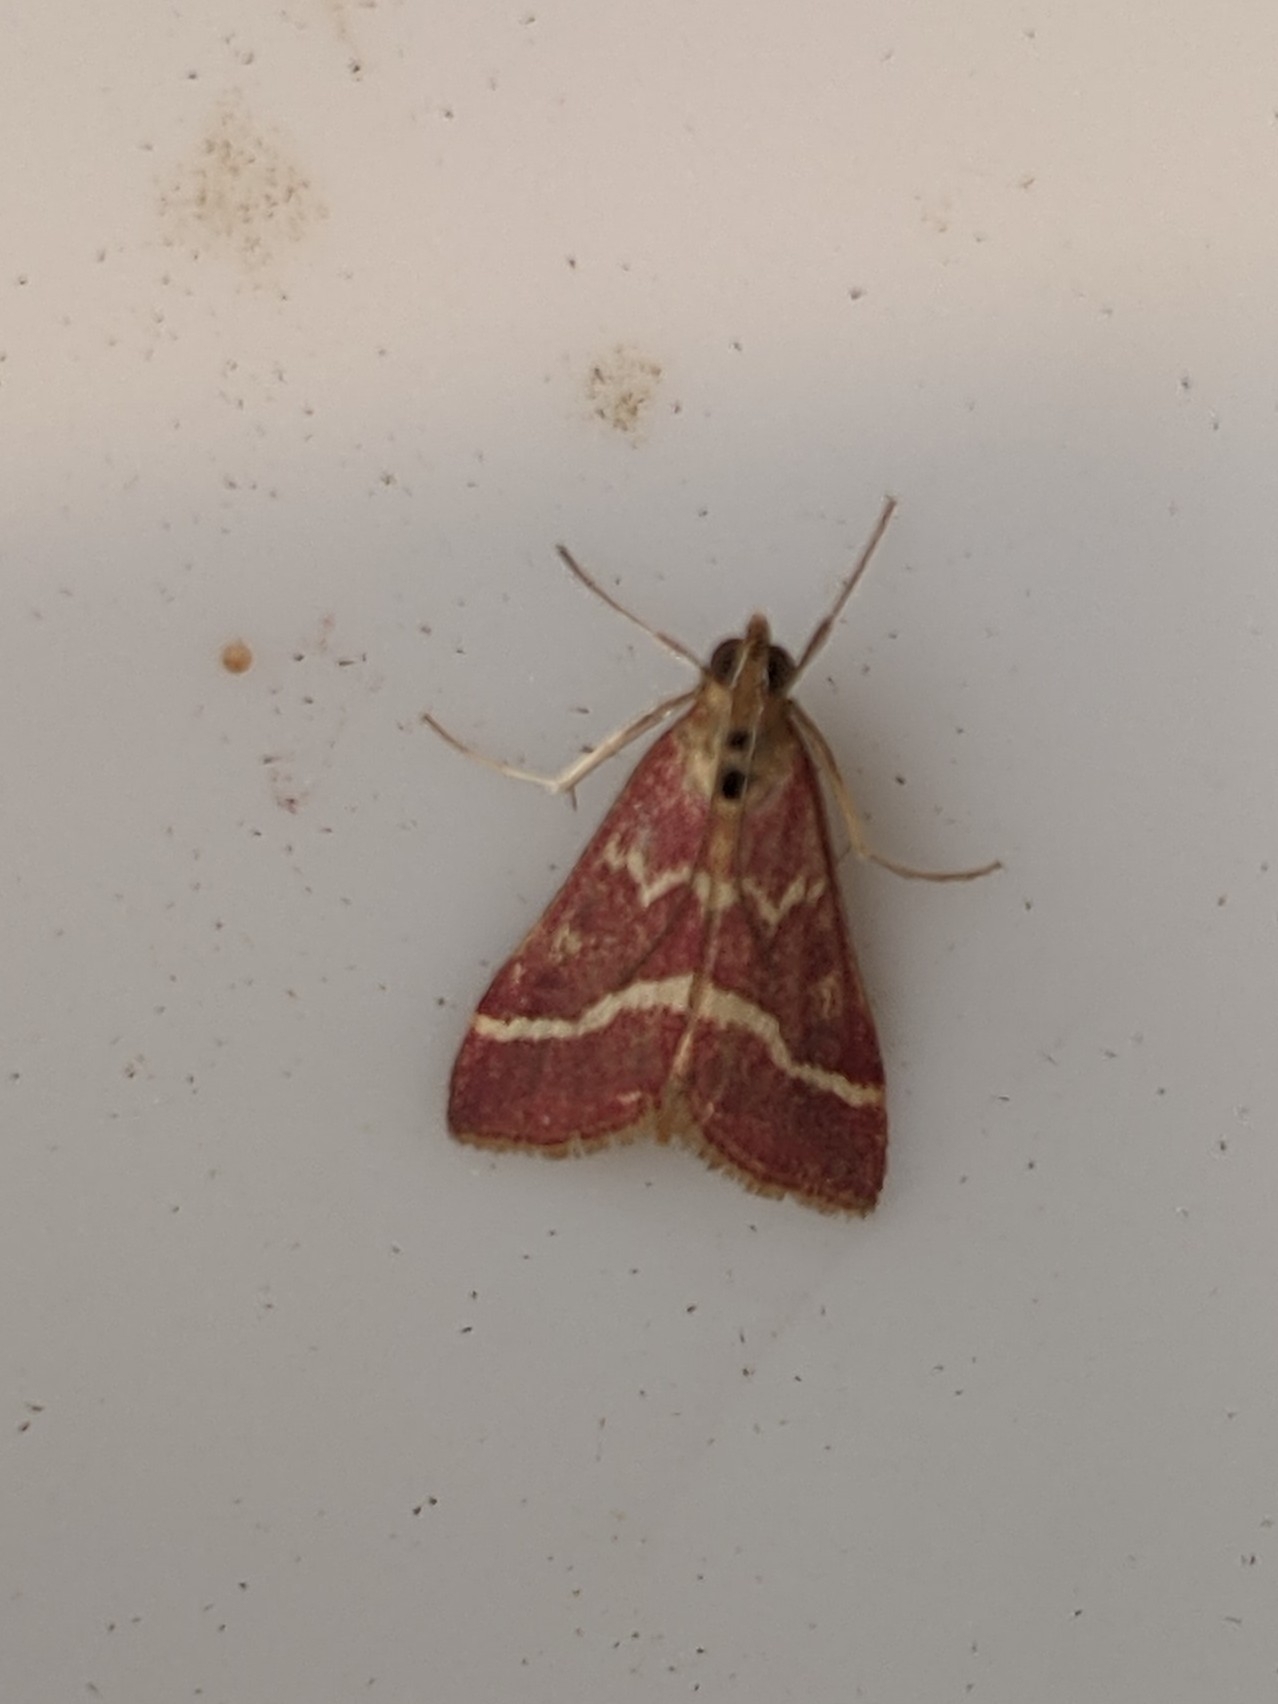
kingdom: Animalia
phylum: Arthropoda
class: Insecta
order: Lepidoptera
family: Crambidae
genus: Pyrausta
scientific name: Pyrausta volupialis
